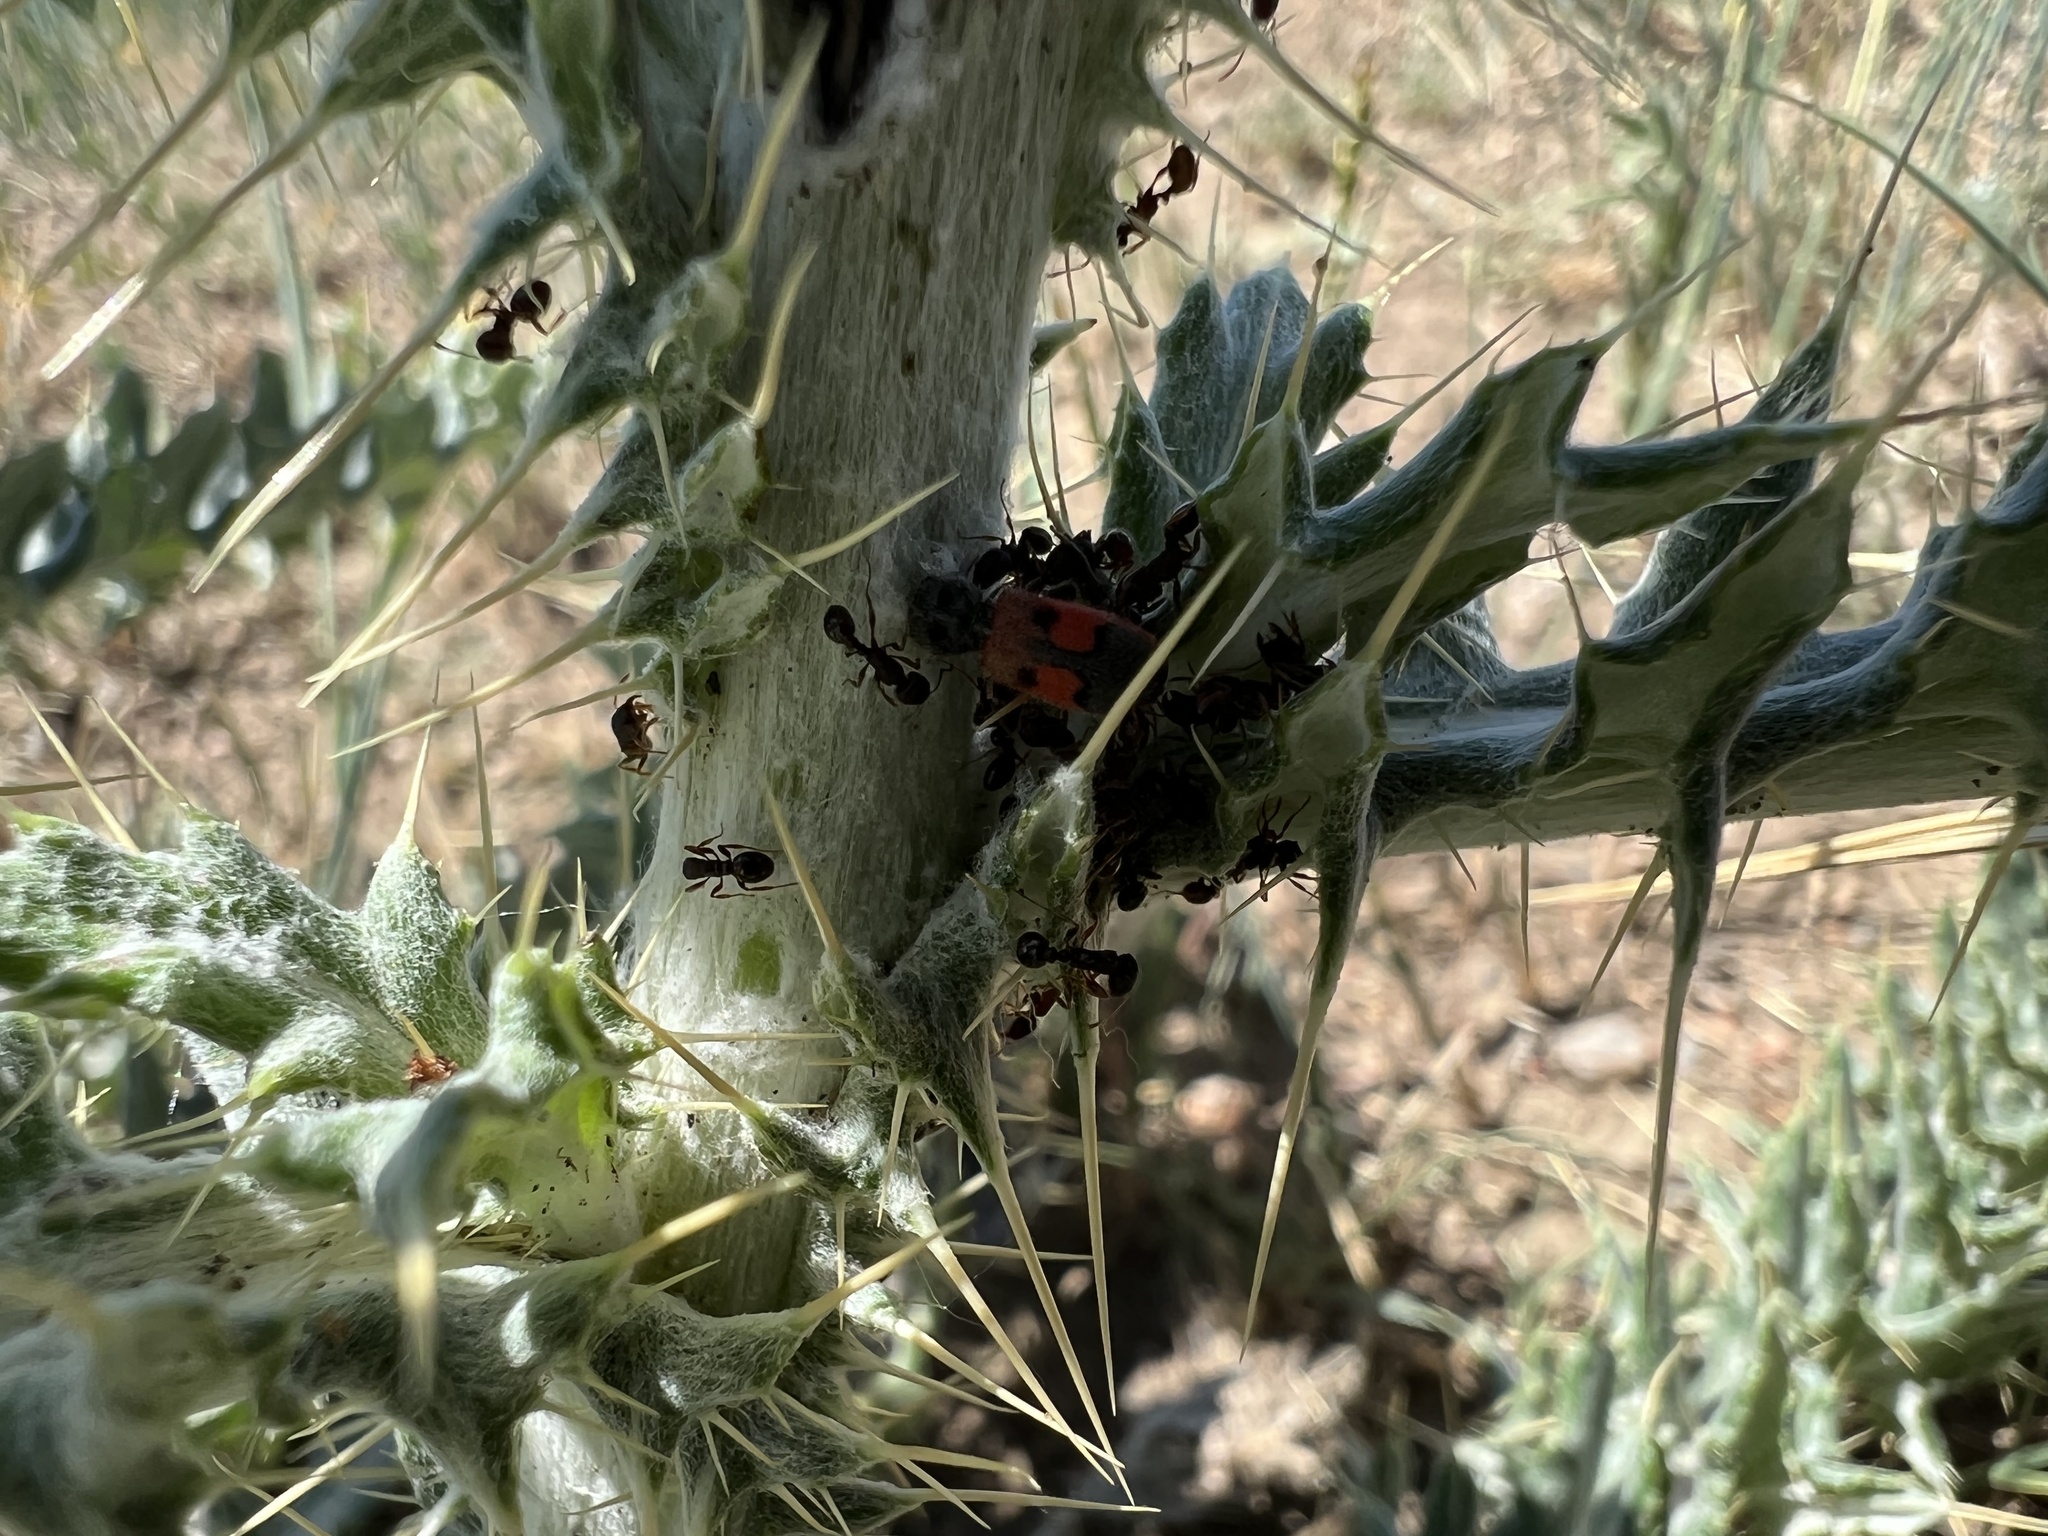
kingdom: Animalia
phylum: Arthropoda
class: Insecta
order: Coleoptera
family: Cleridae
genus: Enoclerus
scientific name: Enoclerus cordifer
